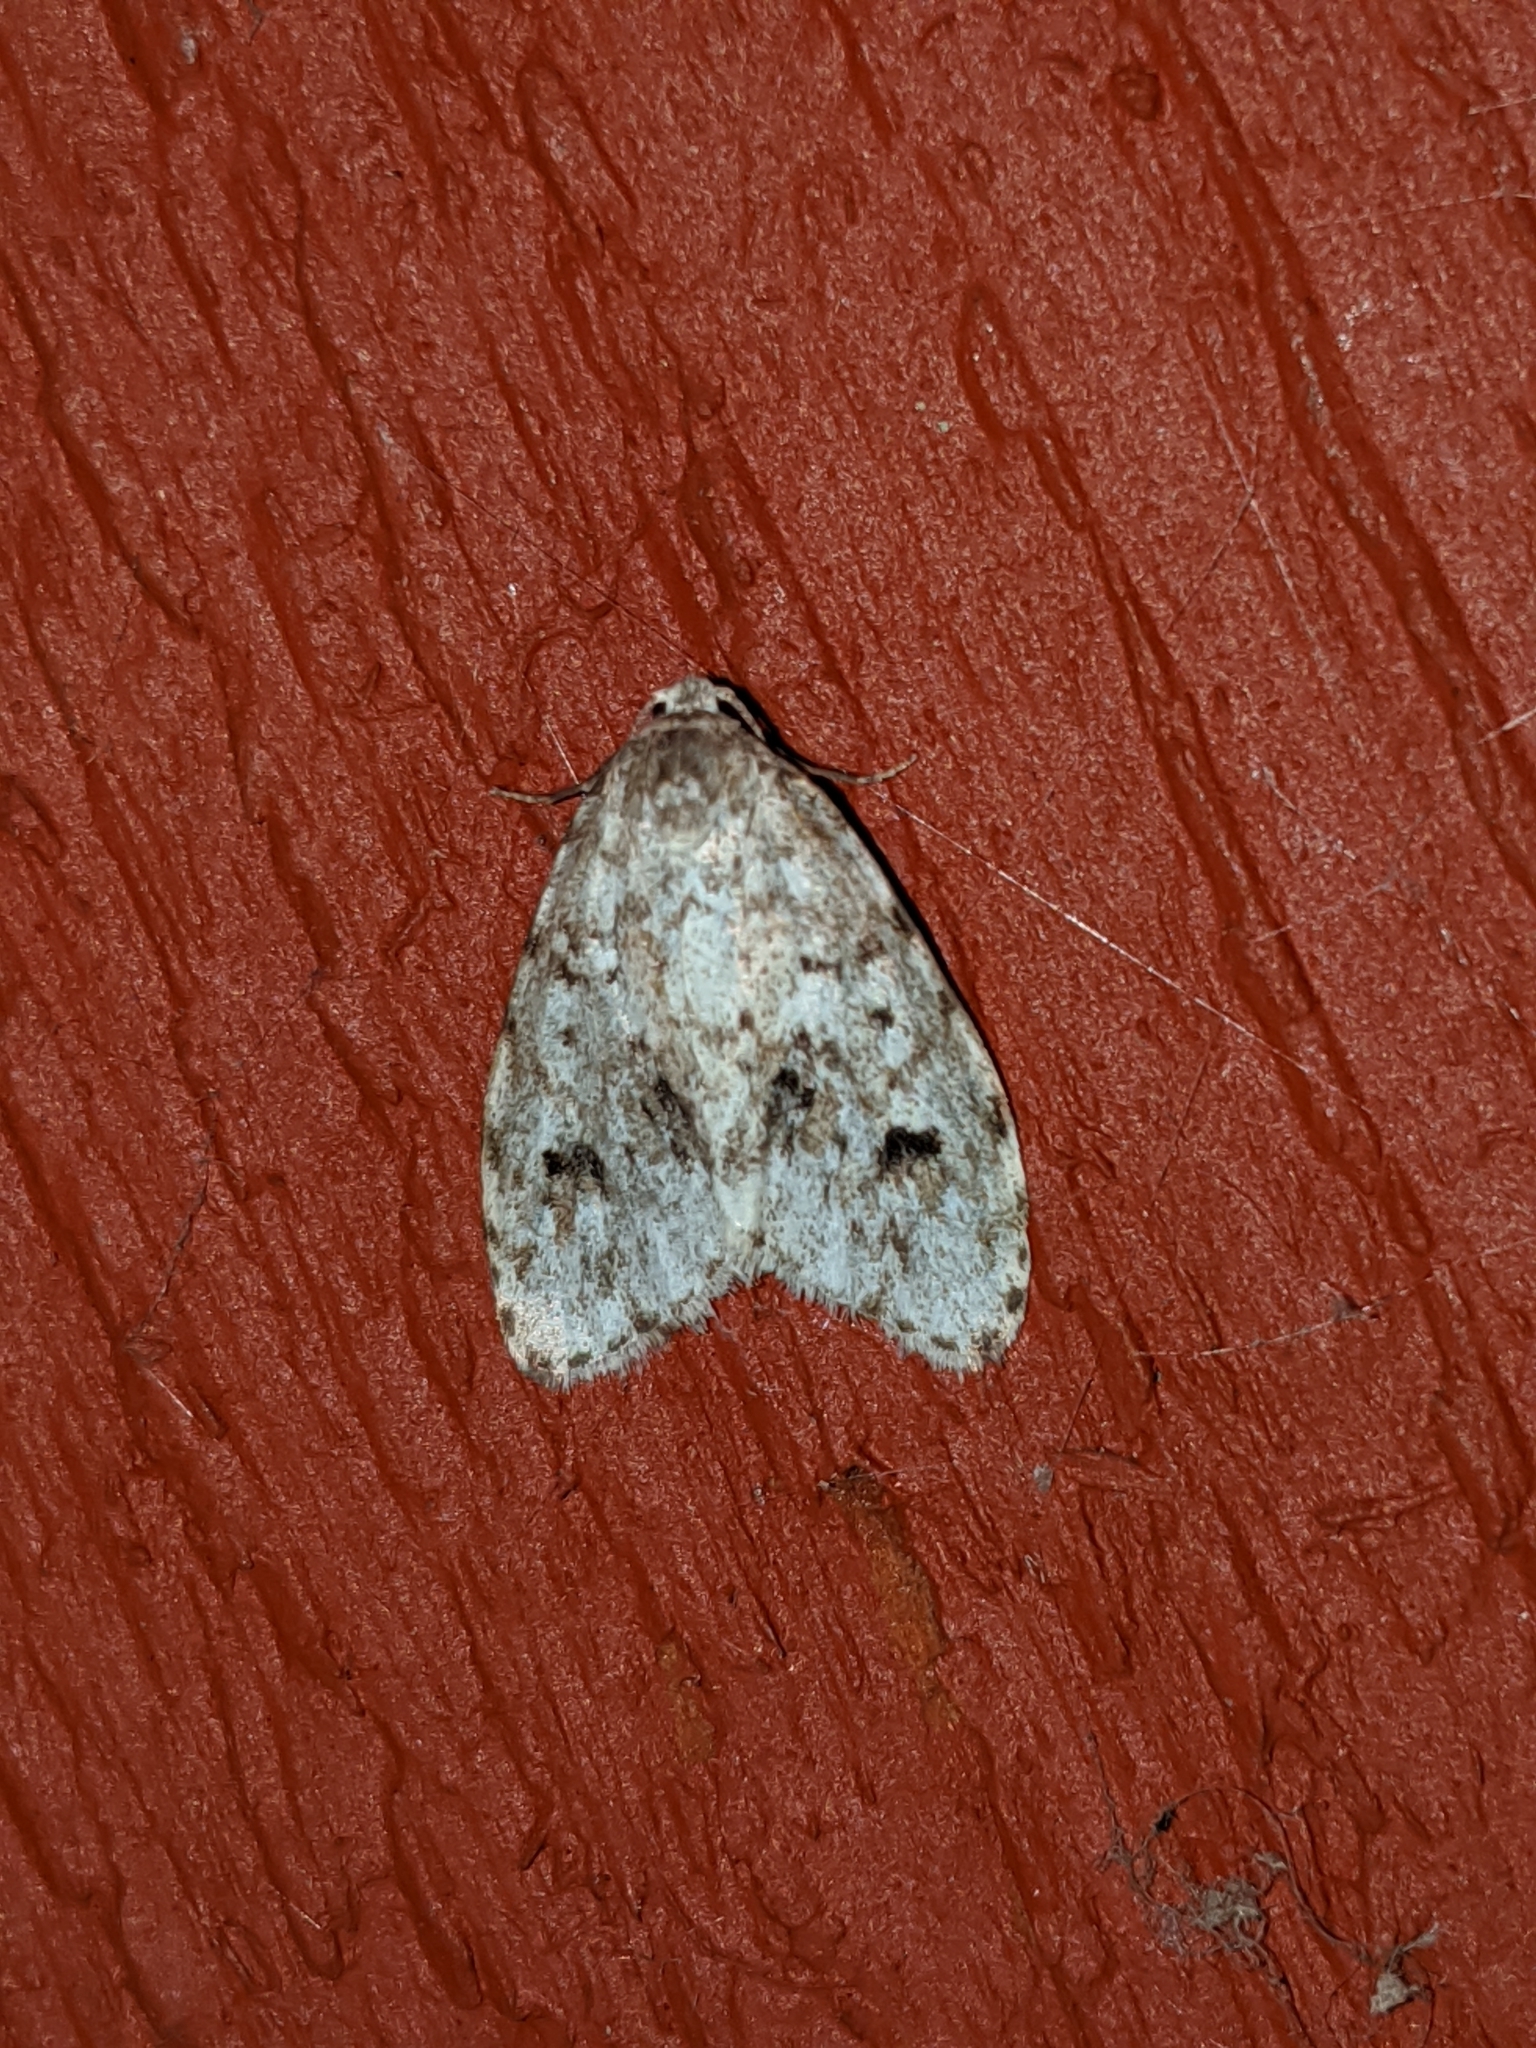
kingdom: Animalia
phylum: Arthropoda
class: Insecta
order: Lepidoptera
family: Erebidae
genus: Clemensia
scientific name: Clemensia umbrata
